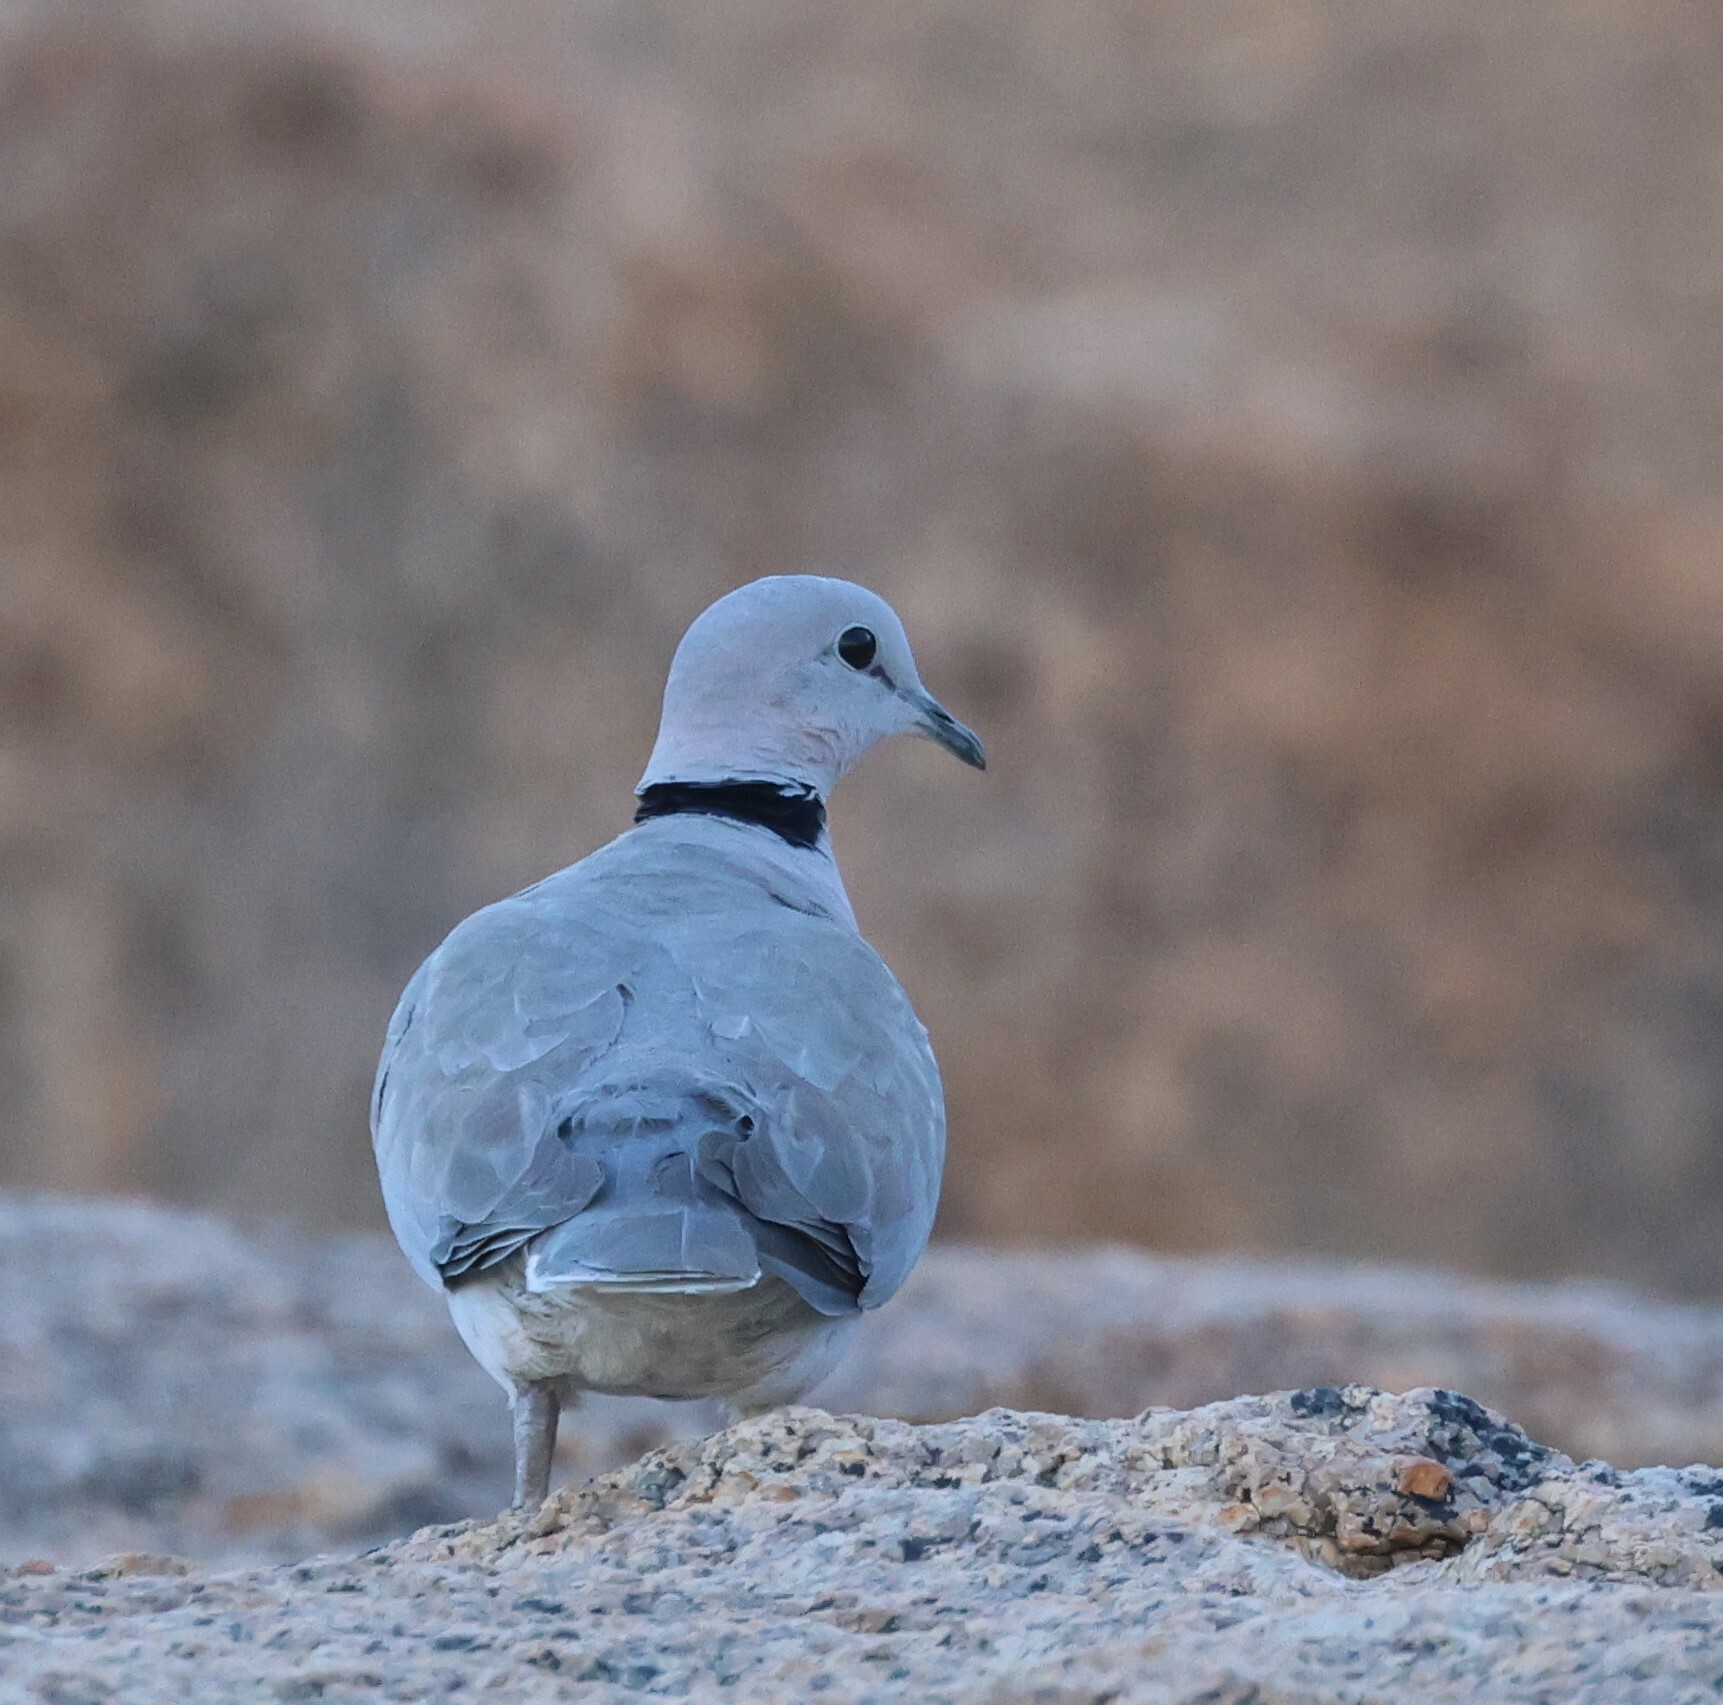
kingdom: Animalia
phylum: Chordata
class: Aves
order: Columbiformes
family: Columbidae
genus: Streptopelia
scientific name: Streptopelia capicola
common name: Ring-necked dove
